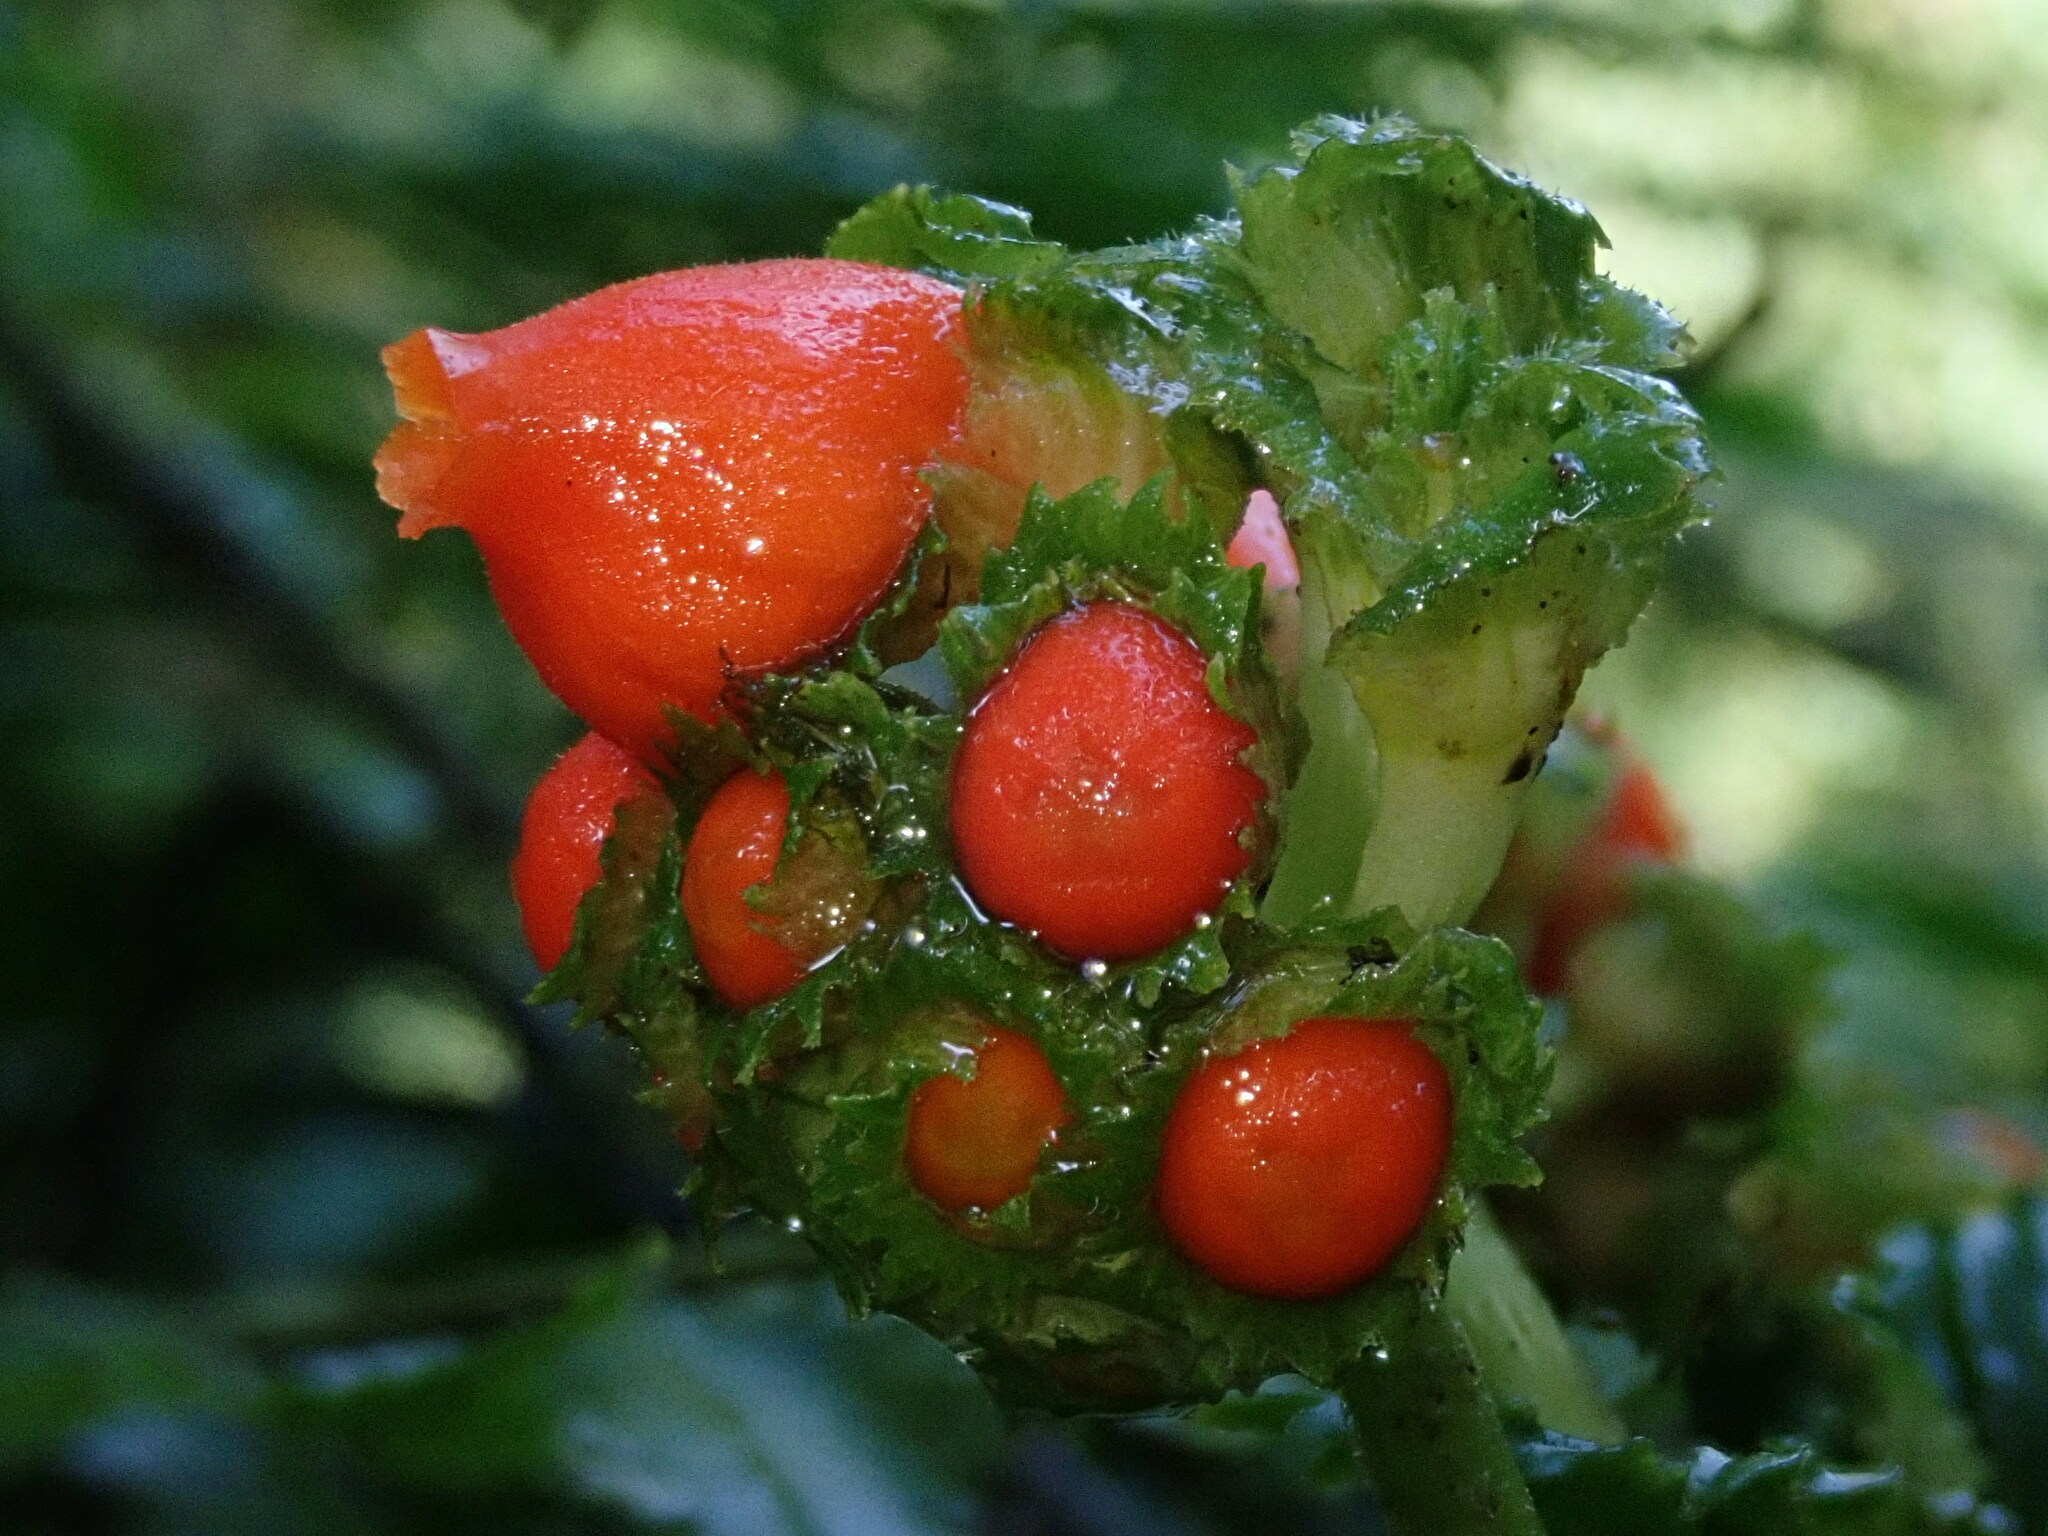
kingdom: Plantae
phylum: Tracheophyta
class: Magnoliopsida
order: Lamiales
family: Gesneriaceae
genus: Gasteranthus
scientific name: Gasteranthus corallinus
